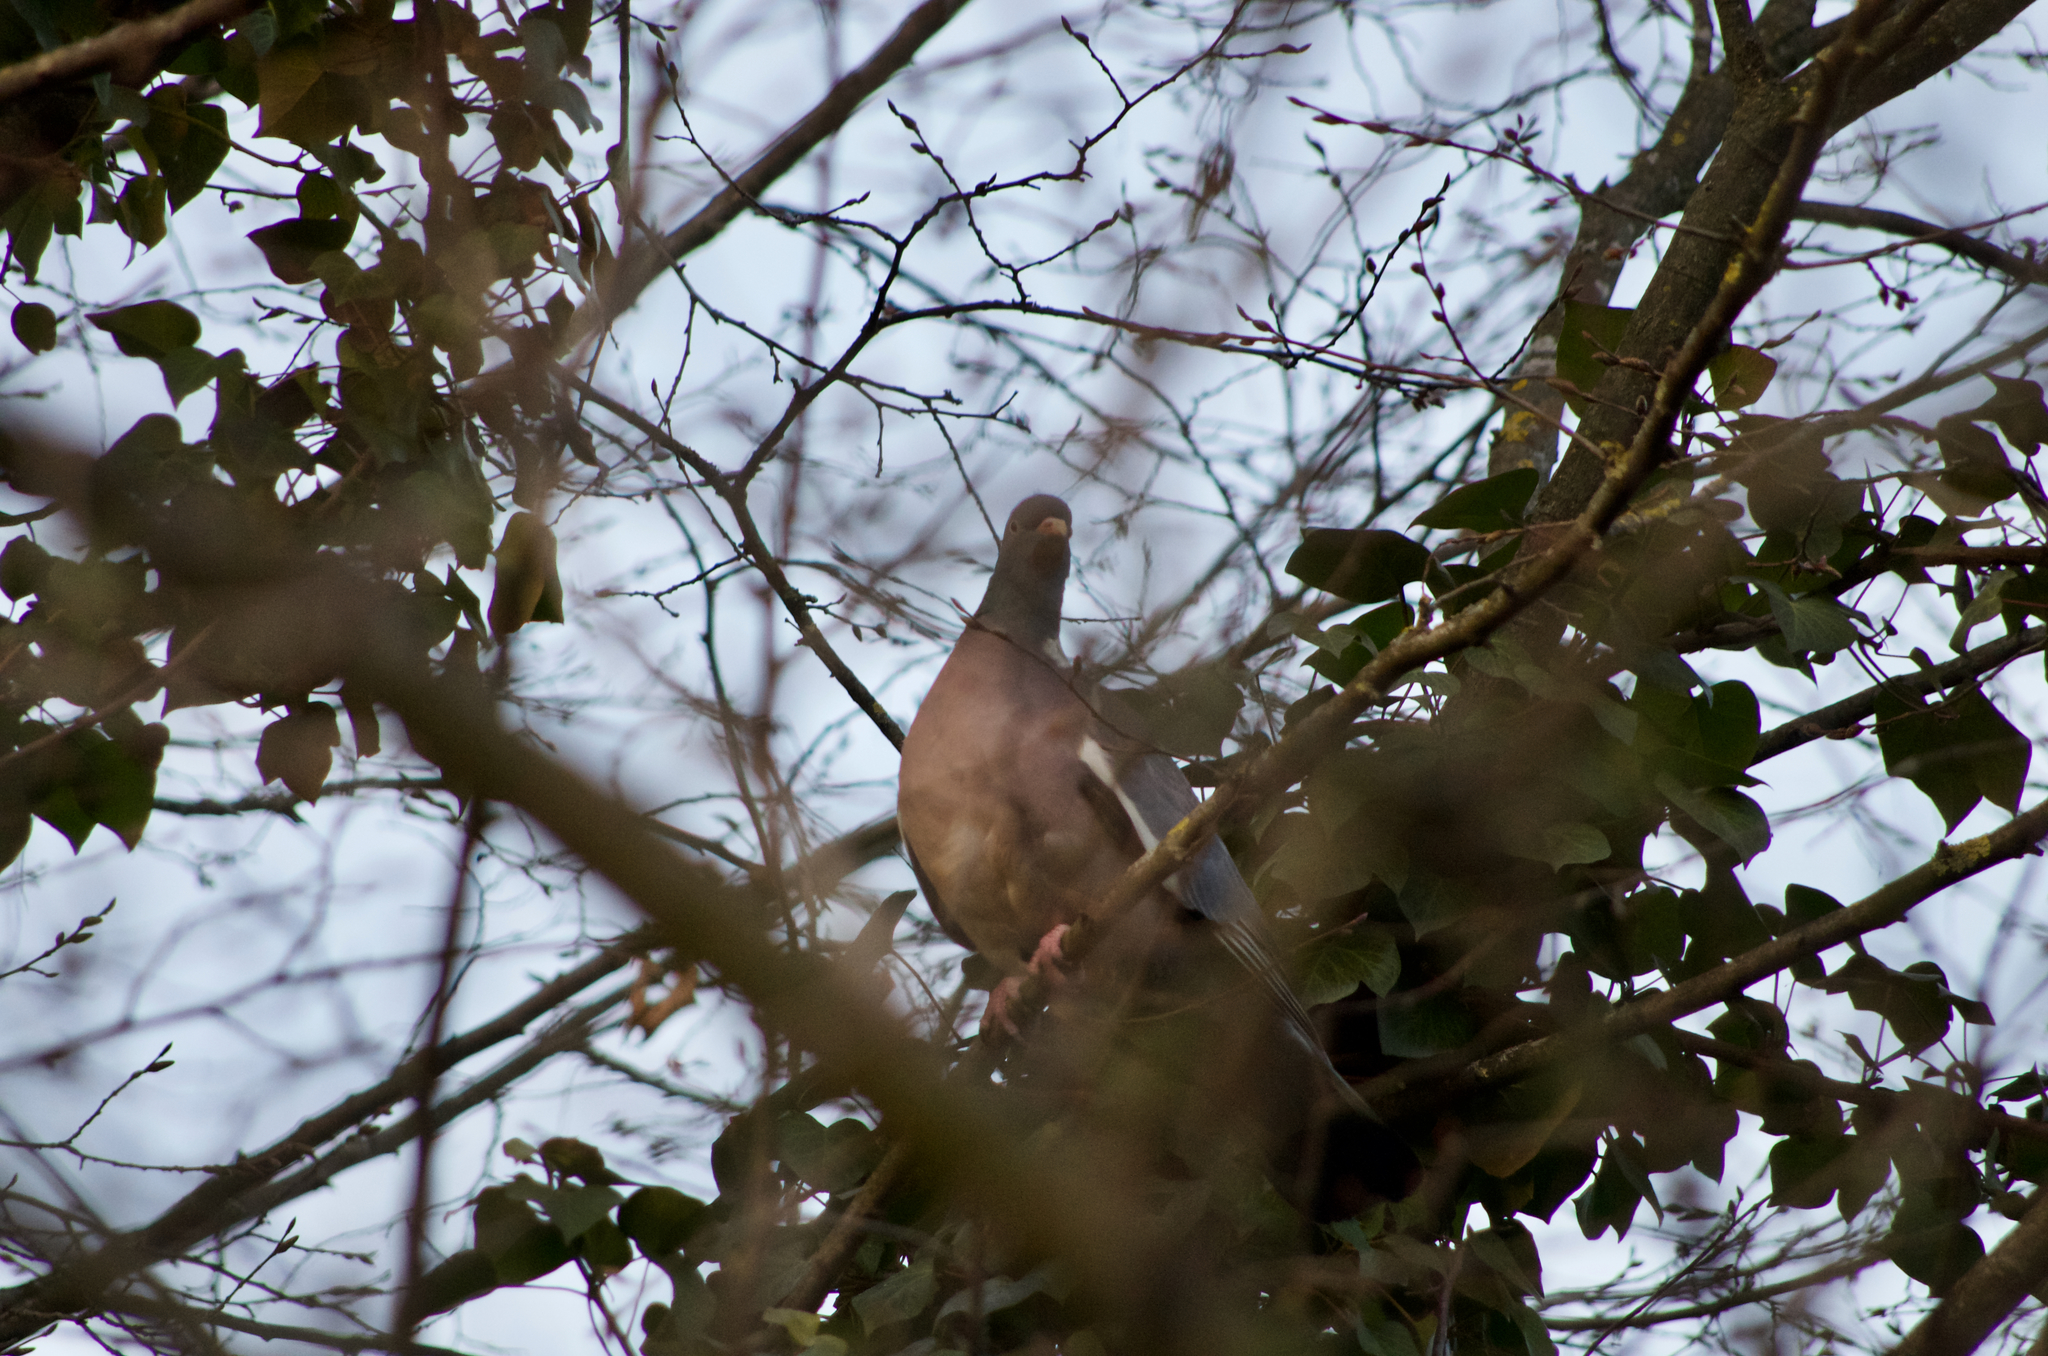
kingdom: Animalia
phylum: Chordata
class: Aves
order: Columbiformes
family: Columbidae
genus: Columba
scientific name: Columba palumbus
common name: Common wood pigeon
